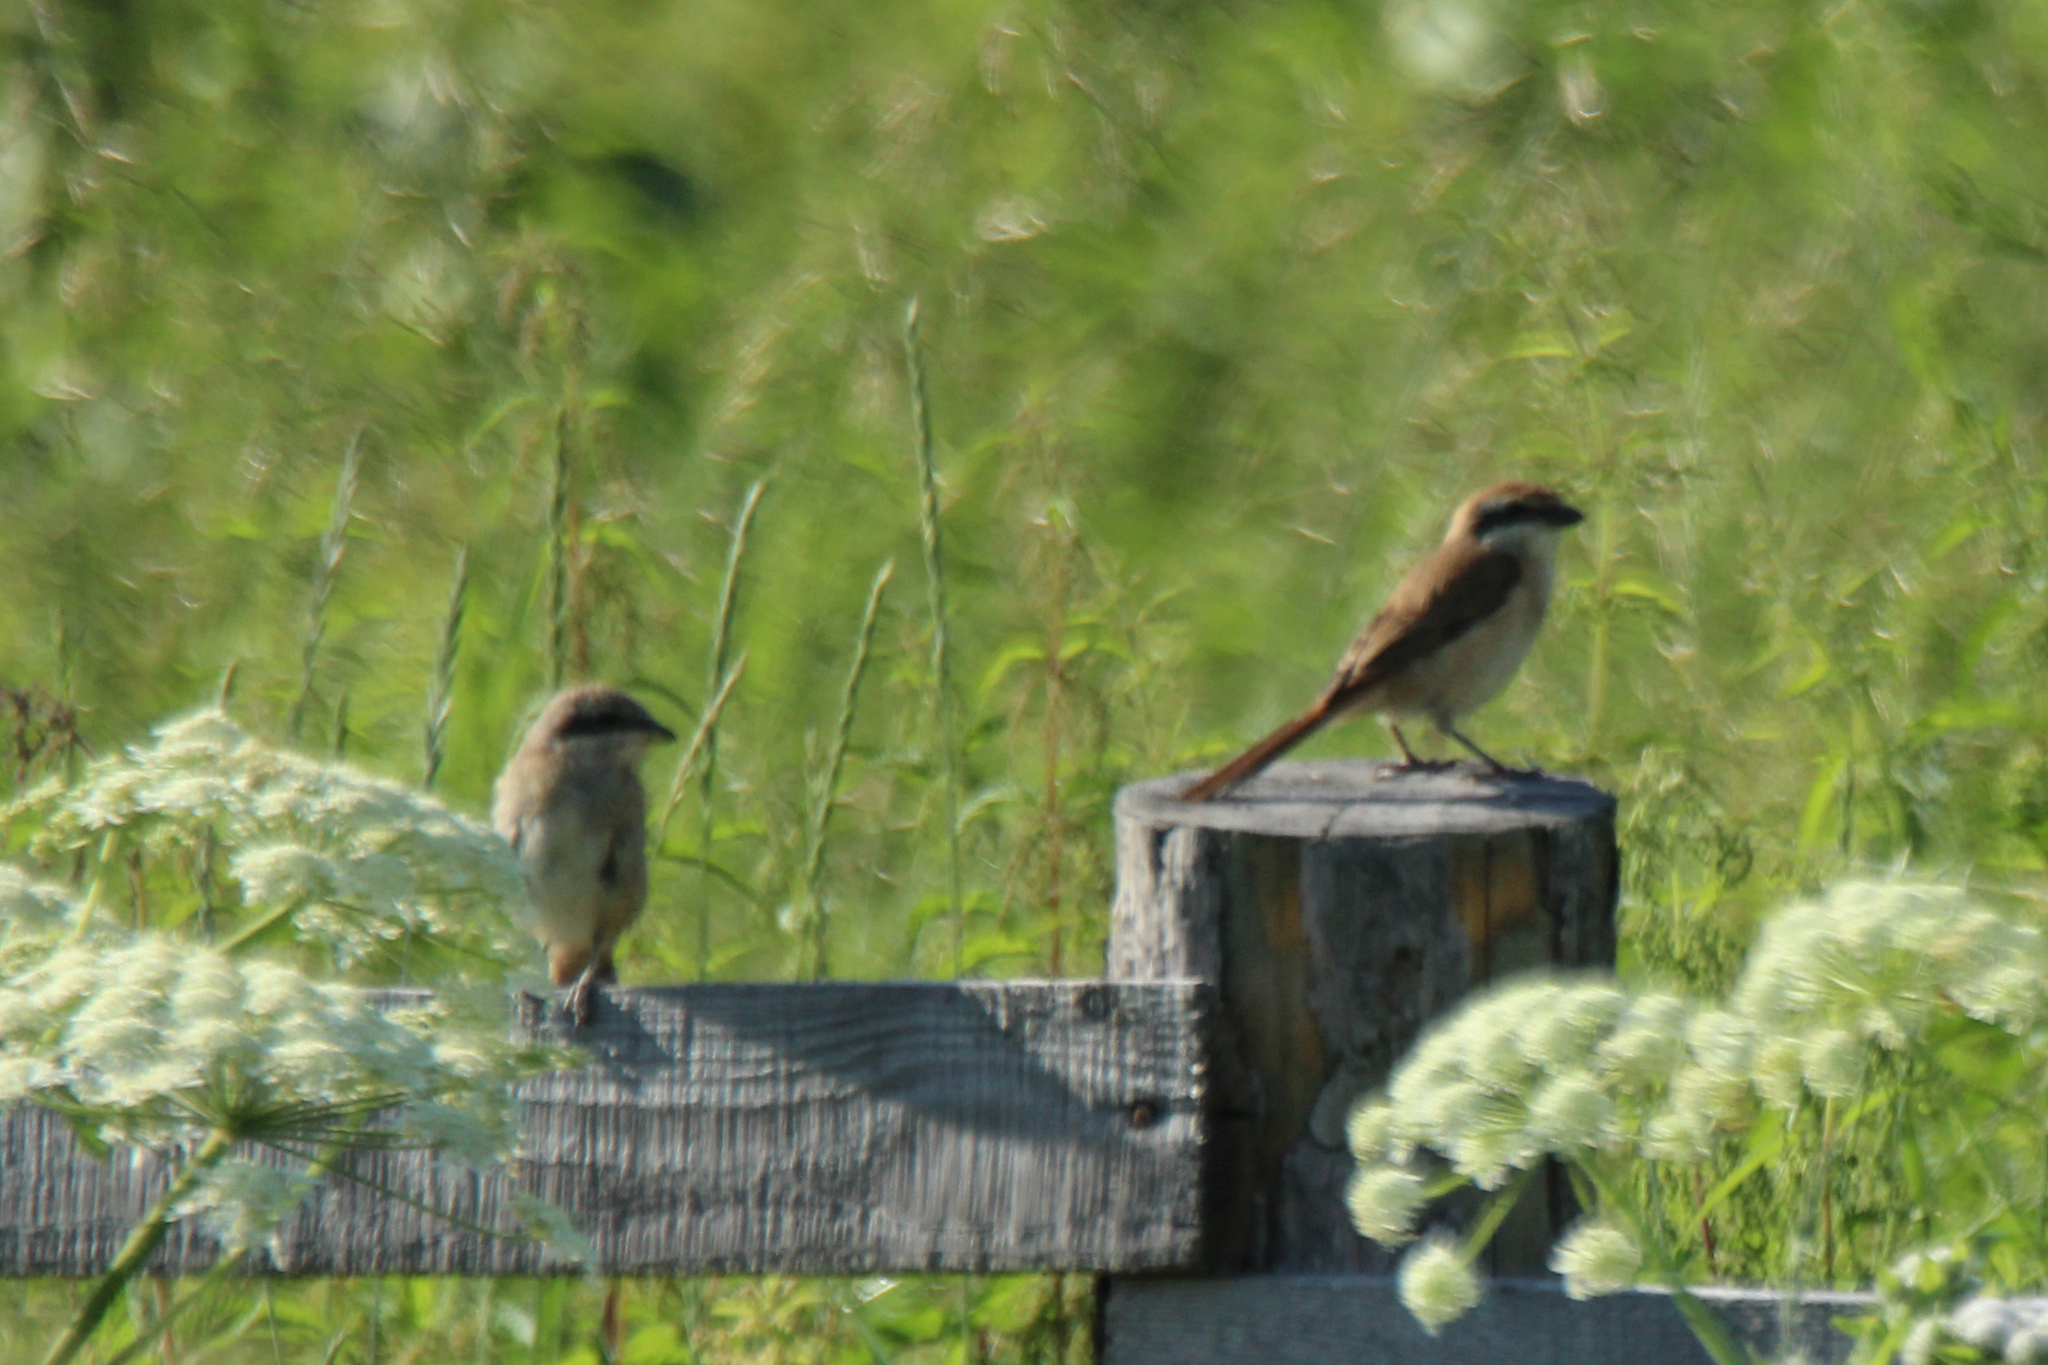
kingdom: Animalia
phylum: Chordata
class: Aves
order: Passeriformes
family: Laniidae
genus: Lanius
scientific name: Lanius cristatus
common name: Brown shrike
